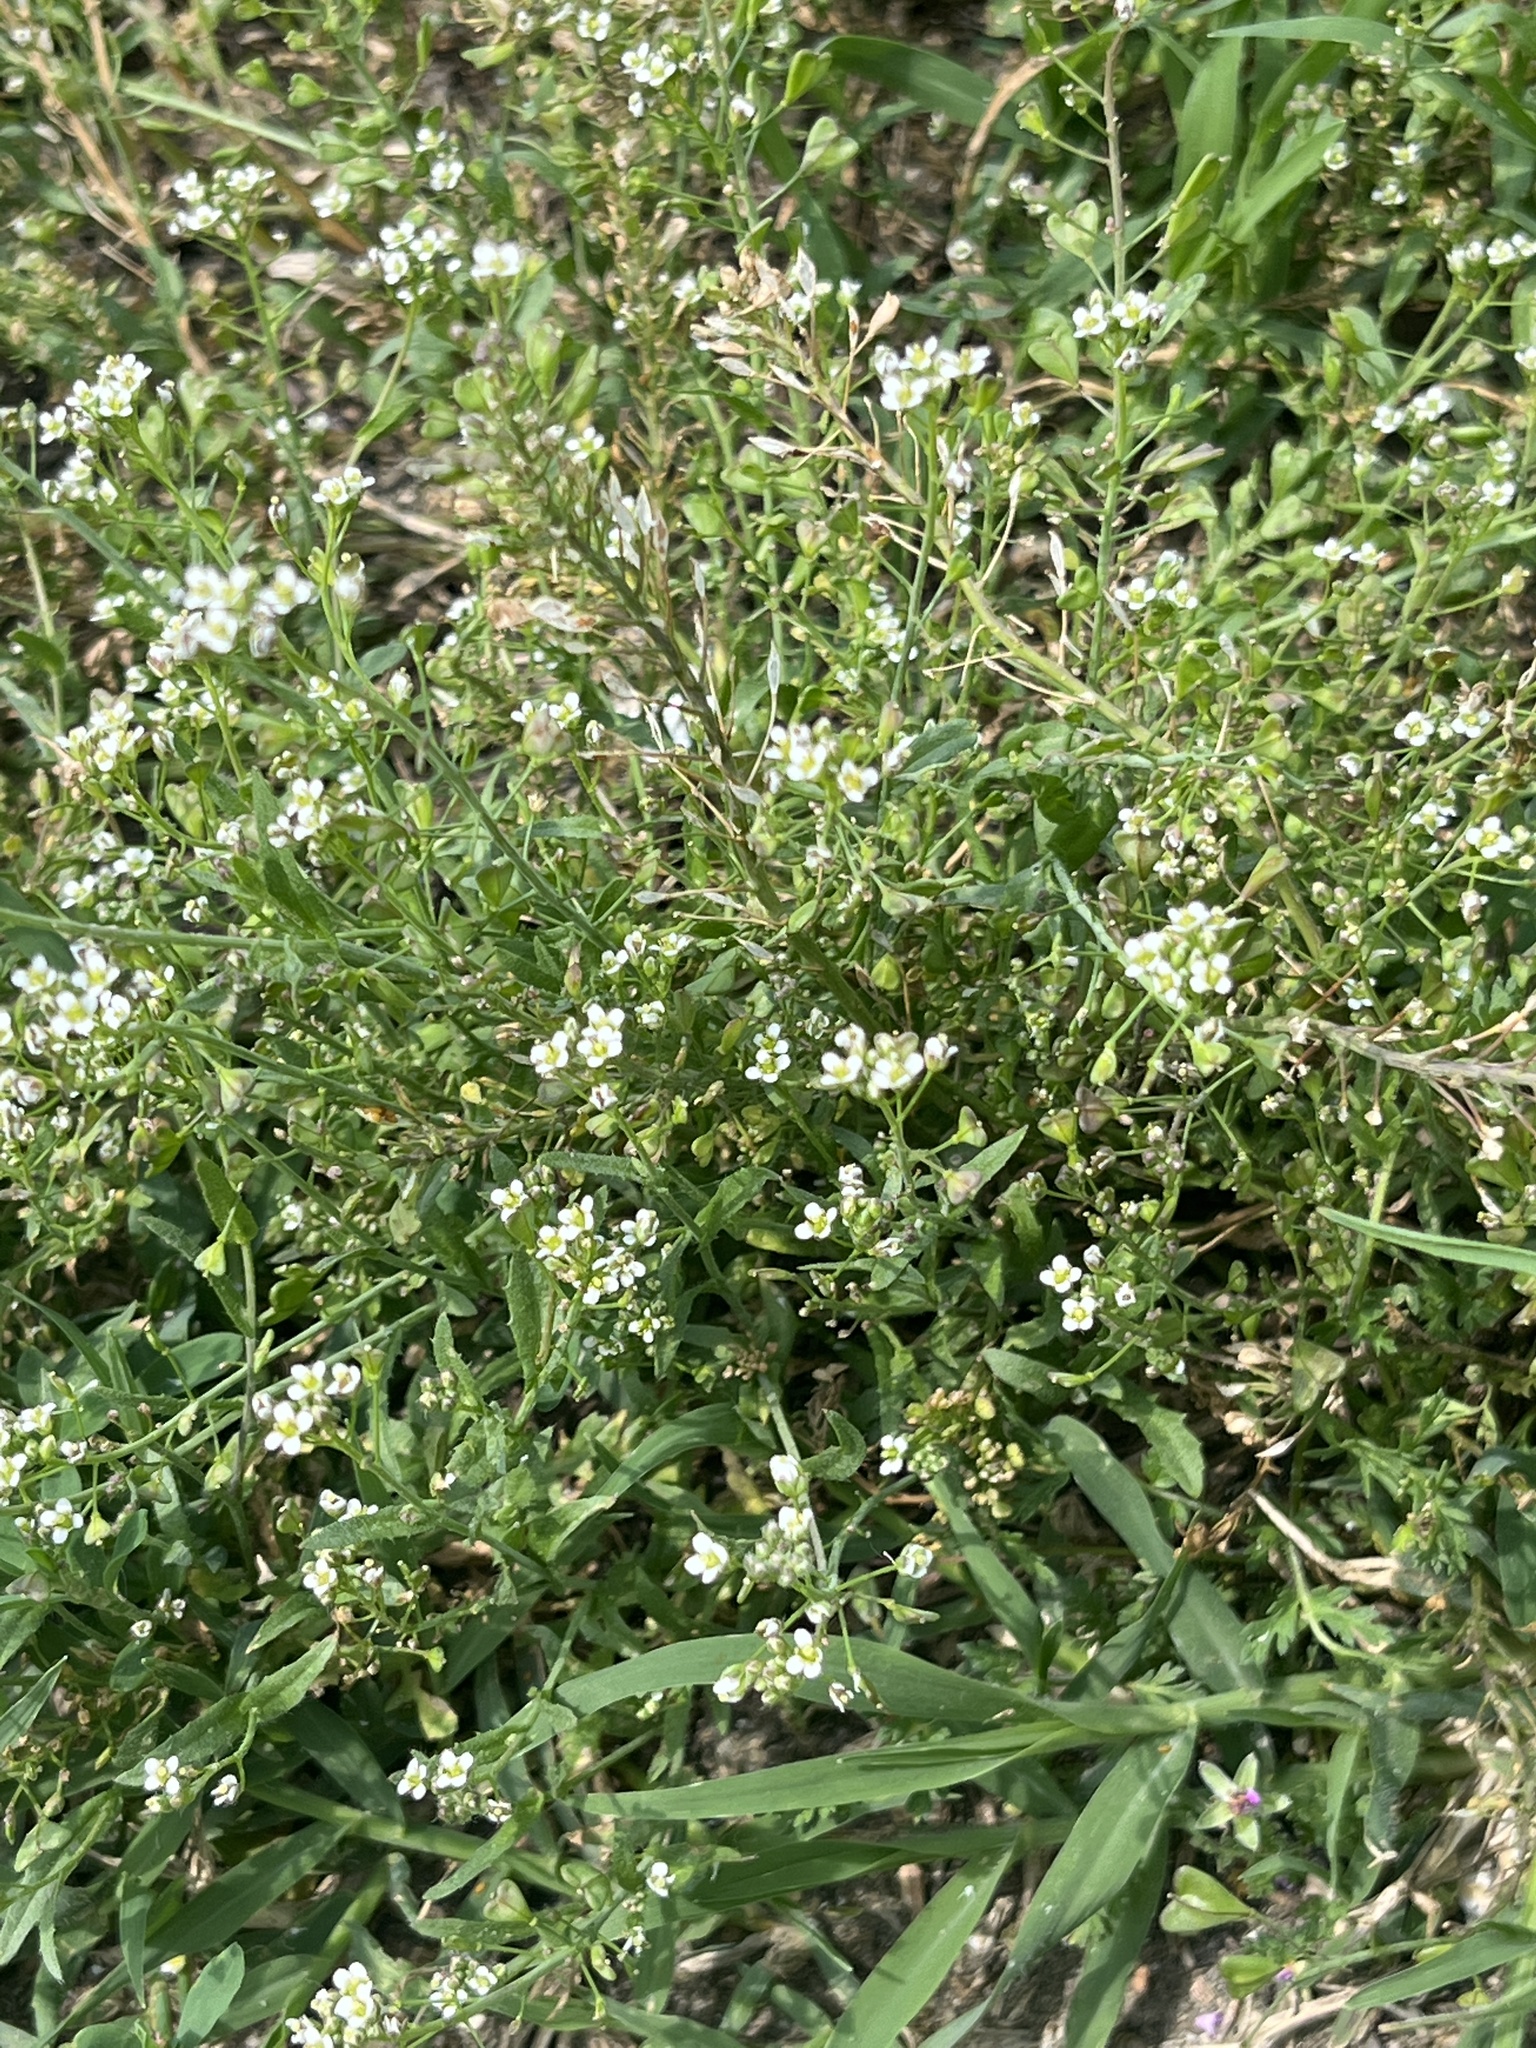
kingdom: Plantae
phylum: Tracheophyta
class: Magnoliopsida
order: Brassicales
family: Brassicaceae
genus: Capsella
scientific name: Capsella bursa-pastoris
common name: Shepherd's purse
